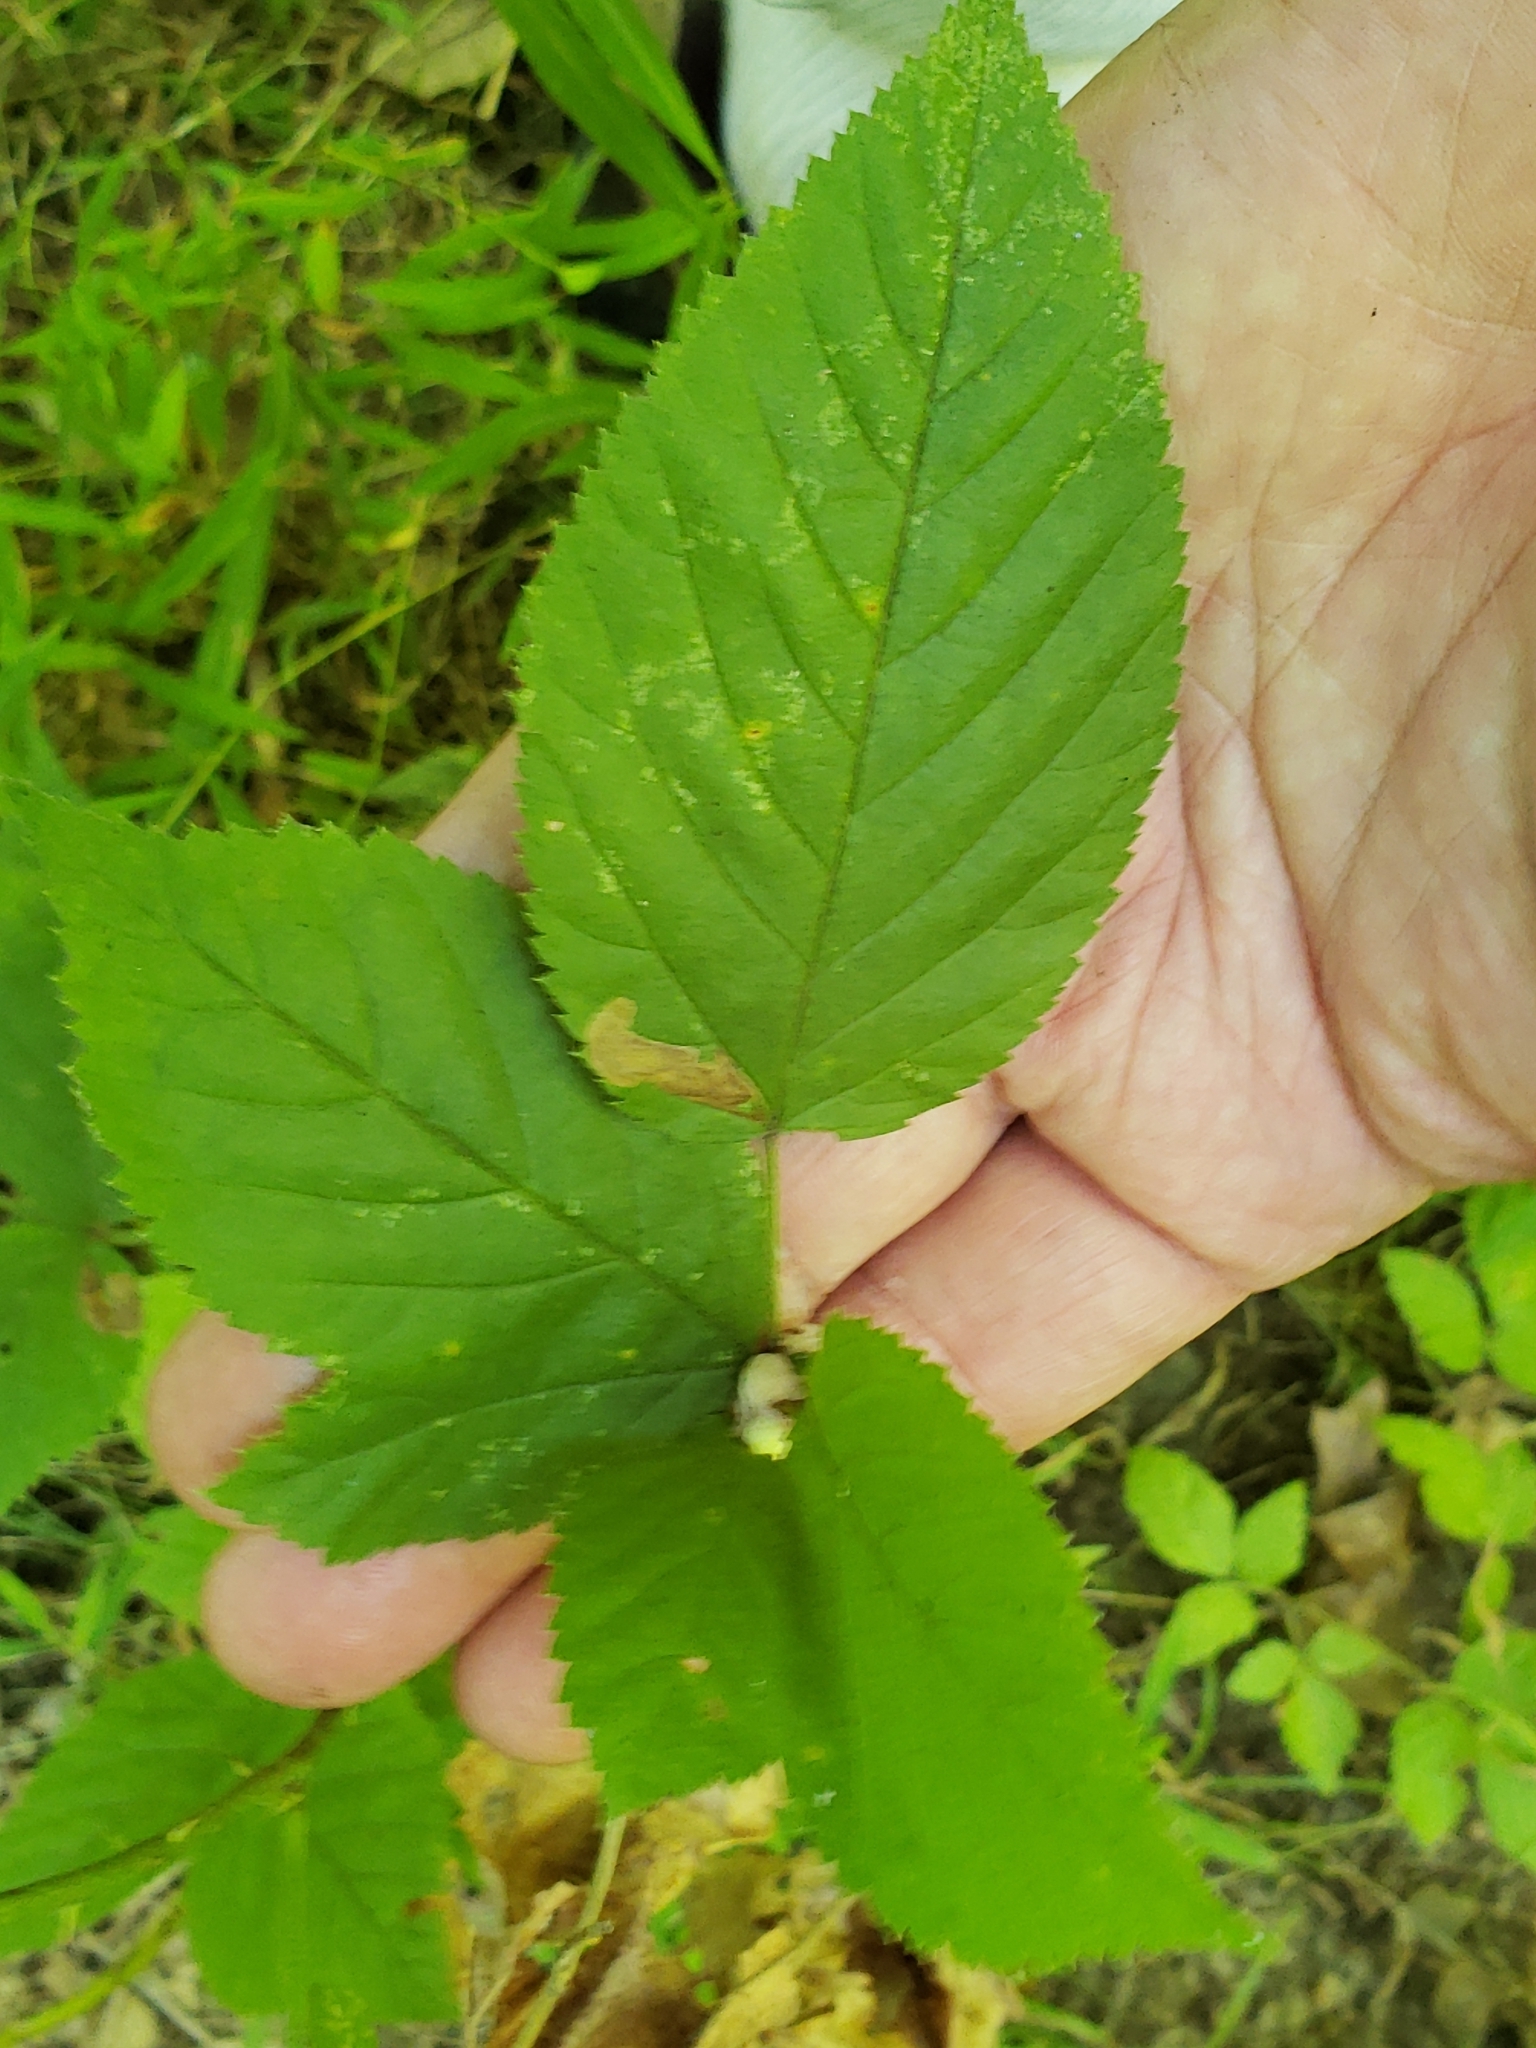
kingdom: Animalia
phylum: Arthropoda
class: Insecta
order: Diptera
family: Cecidomyiidae
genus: Neolasioptera
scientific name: Neolasioptera farinosa
